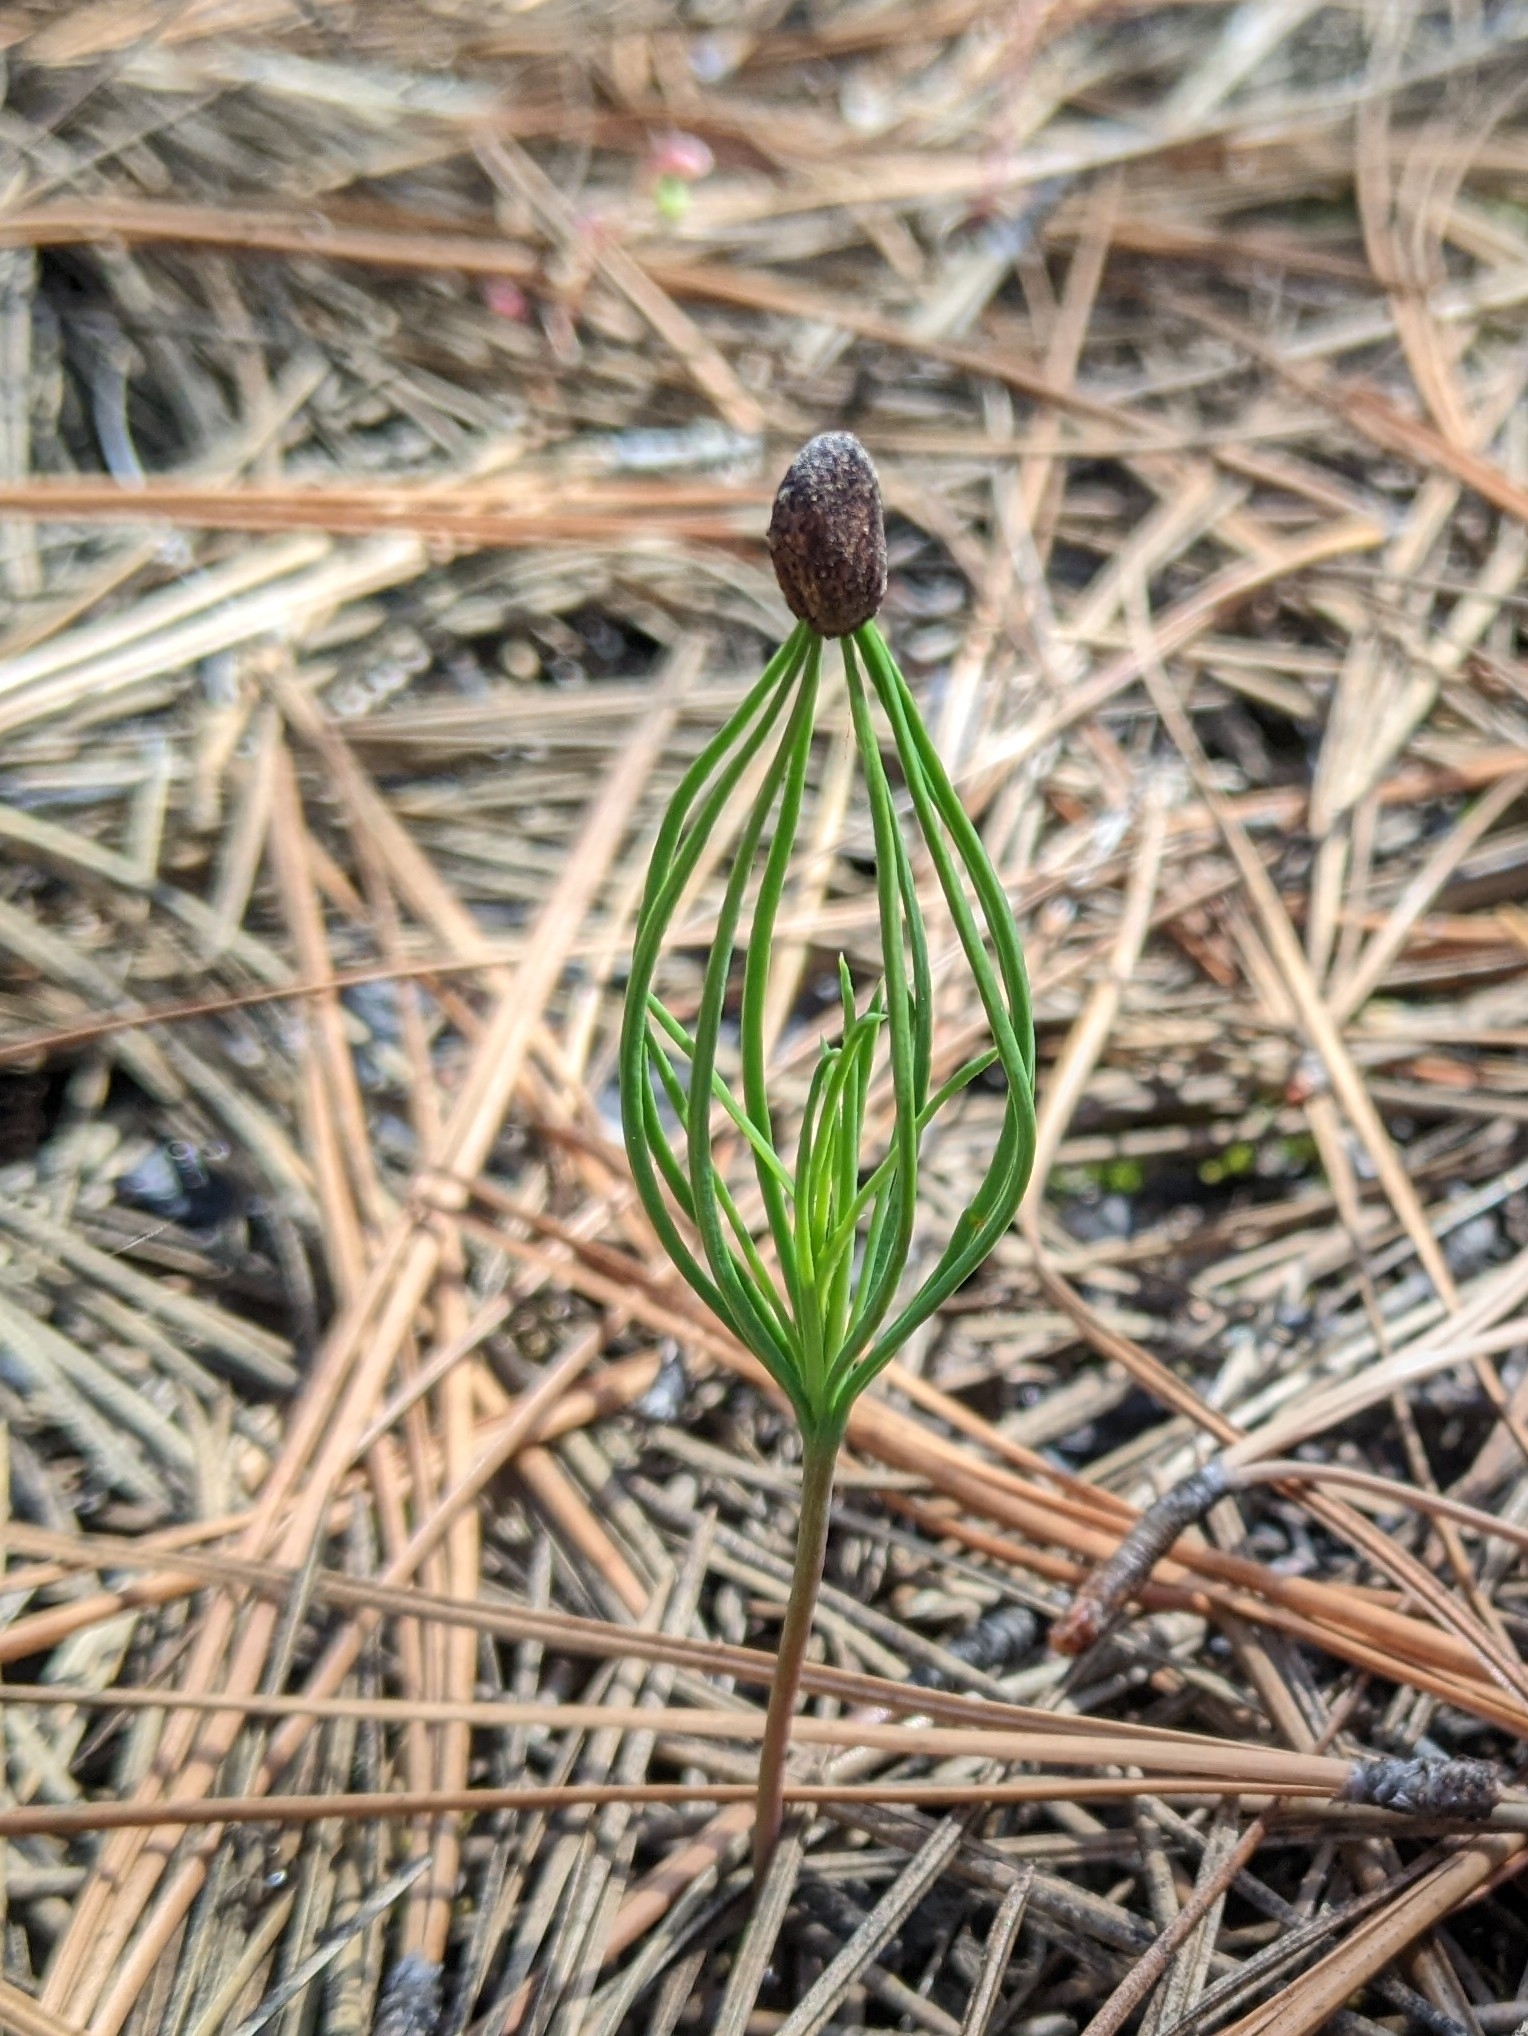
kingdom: Plantae
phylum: Tracheophyta
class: Pinopsida
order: Pinales
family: Pinaceae
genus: Pinus
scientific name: Pinus ponderosa
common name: Western yellow-pine
